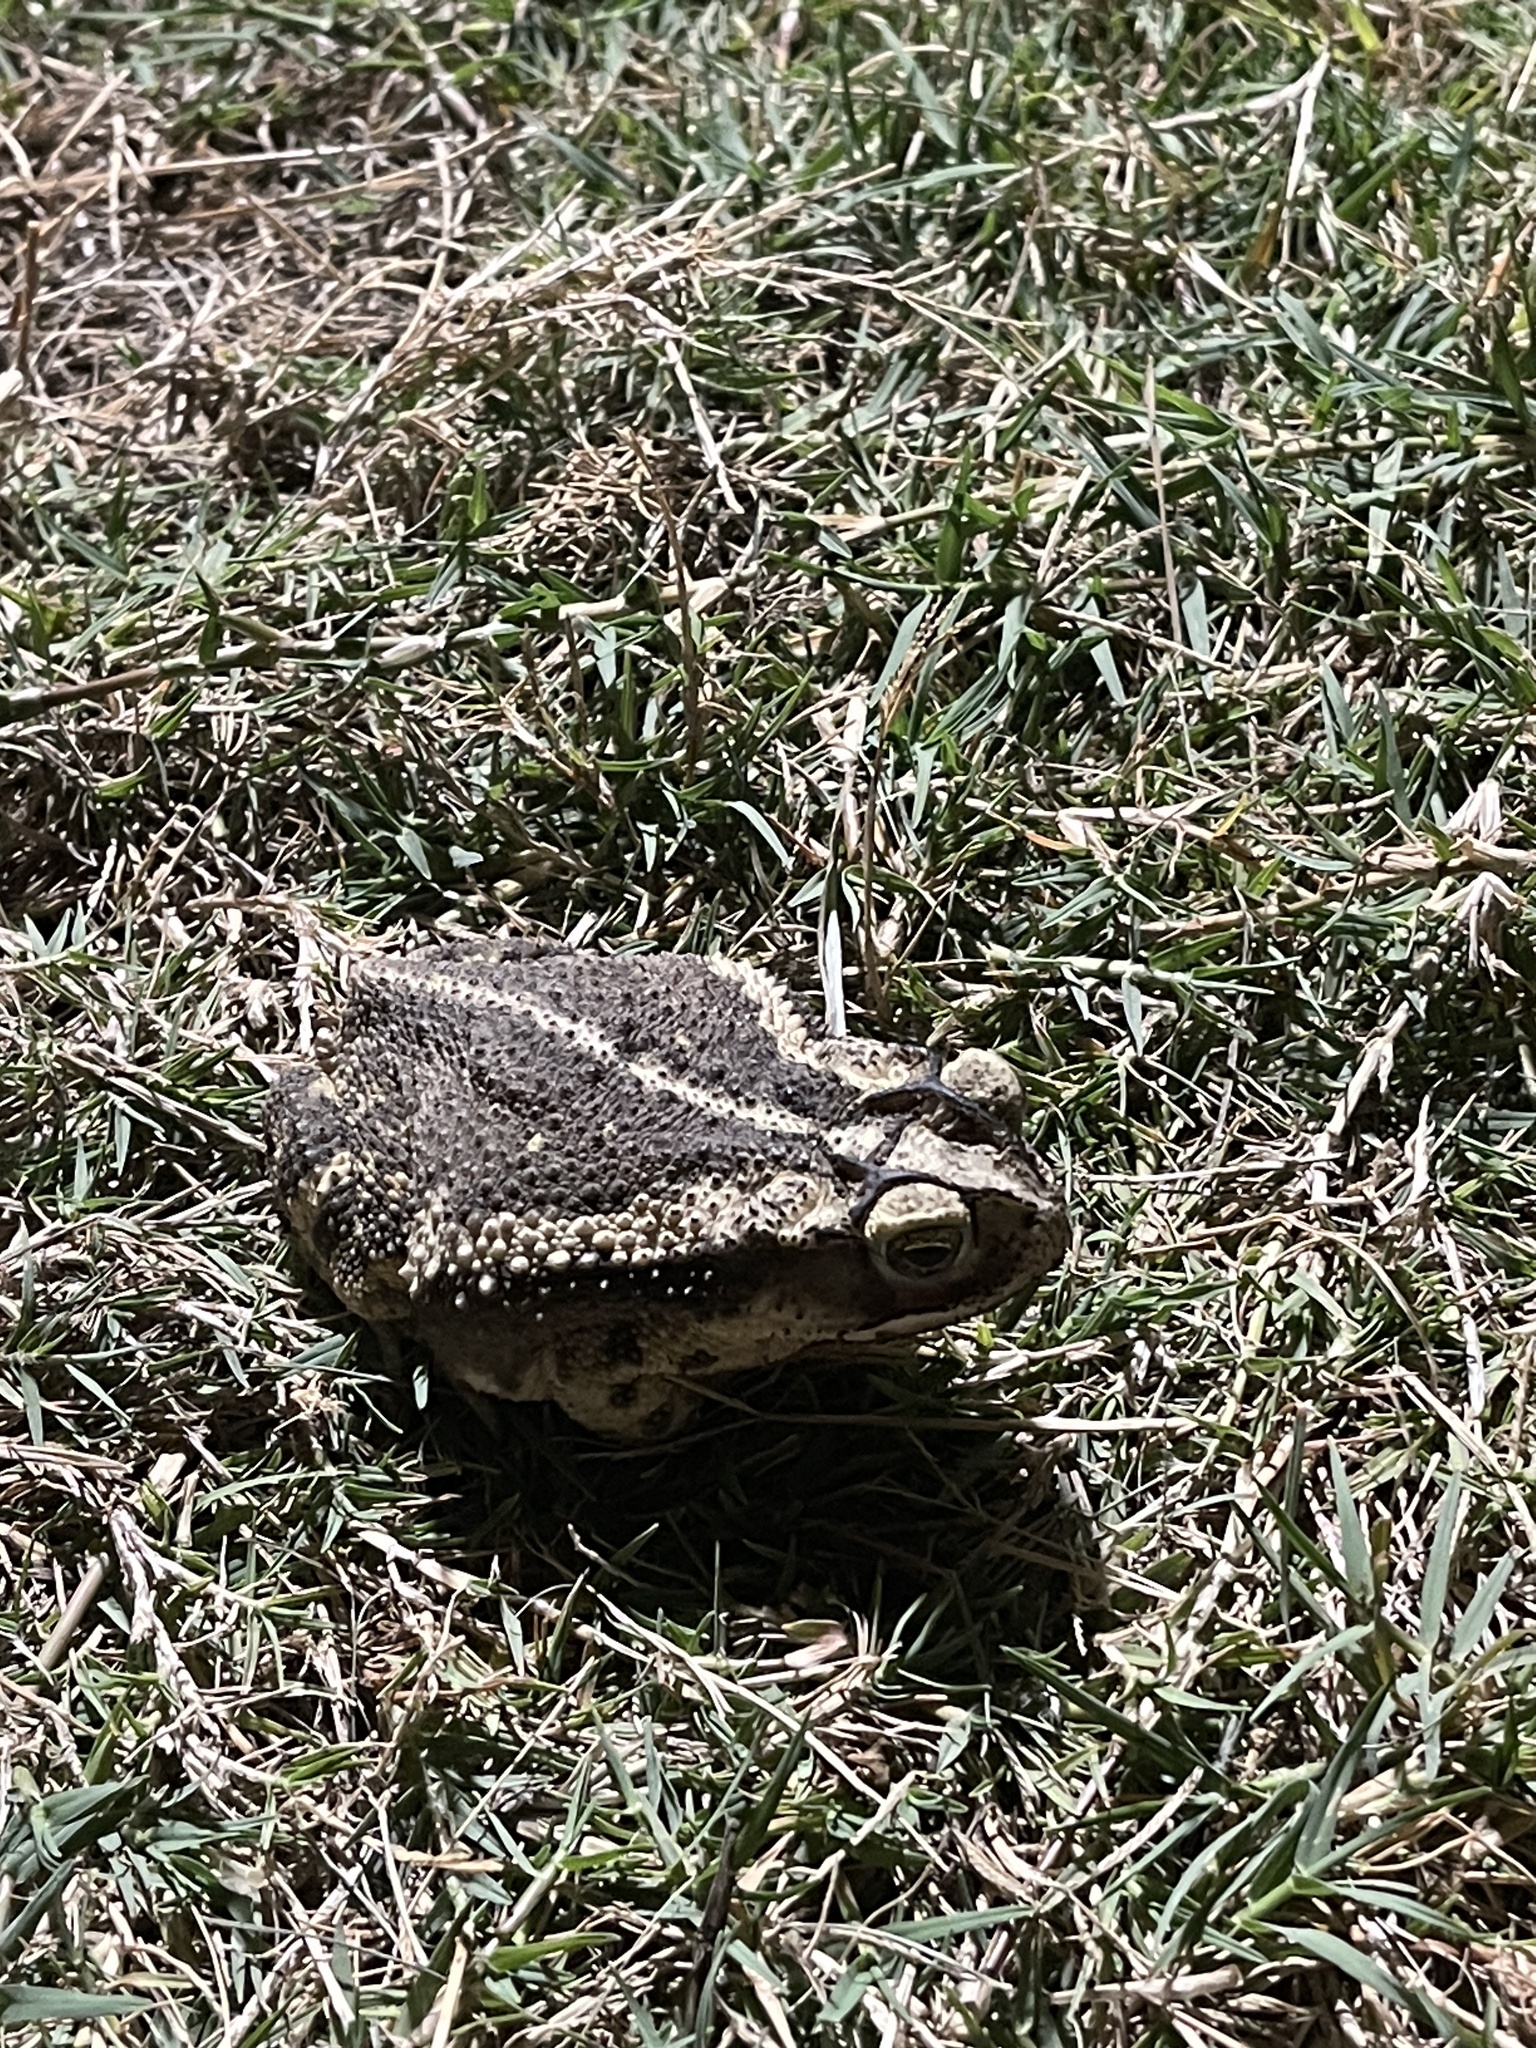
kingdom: Animalia
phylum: Chordata
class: Amphibia
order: Anura
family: Bufonidae
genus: Incilius
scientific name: Incilius nebulifer
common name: Gulf coast toad
